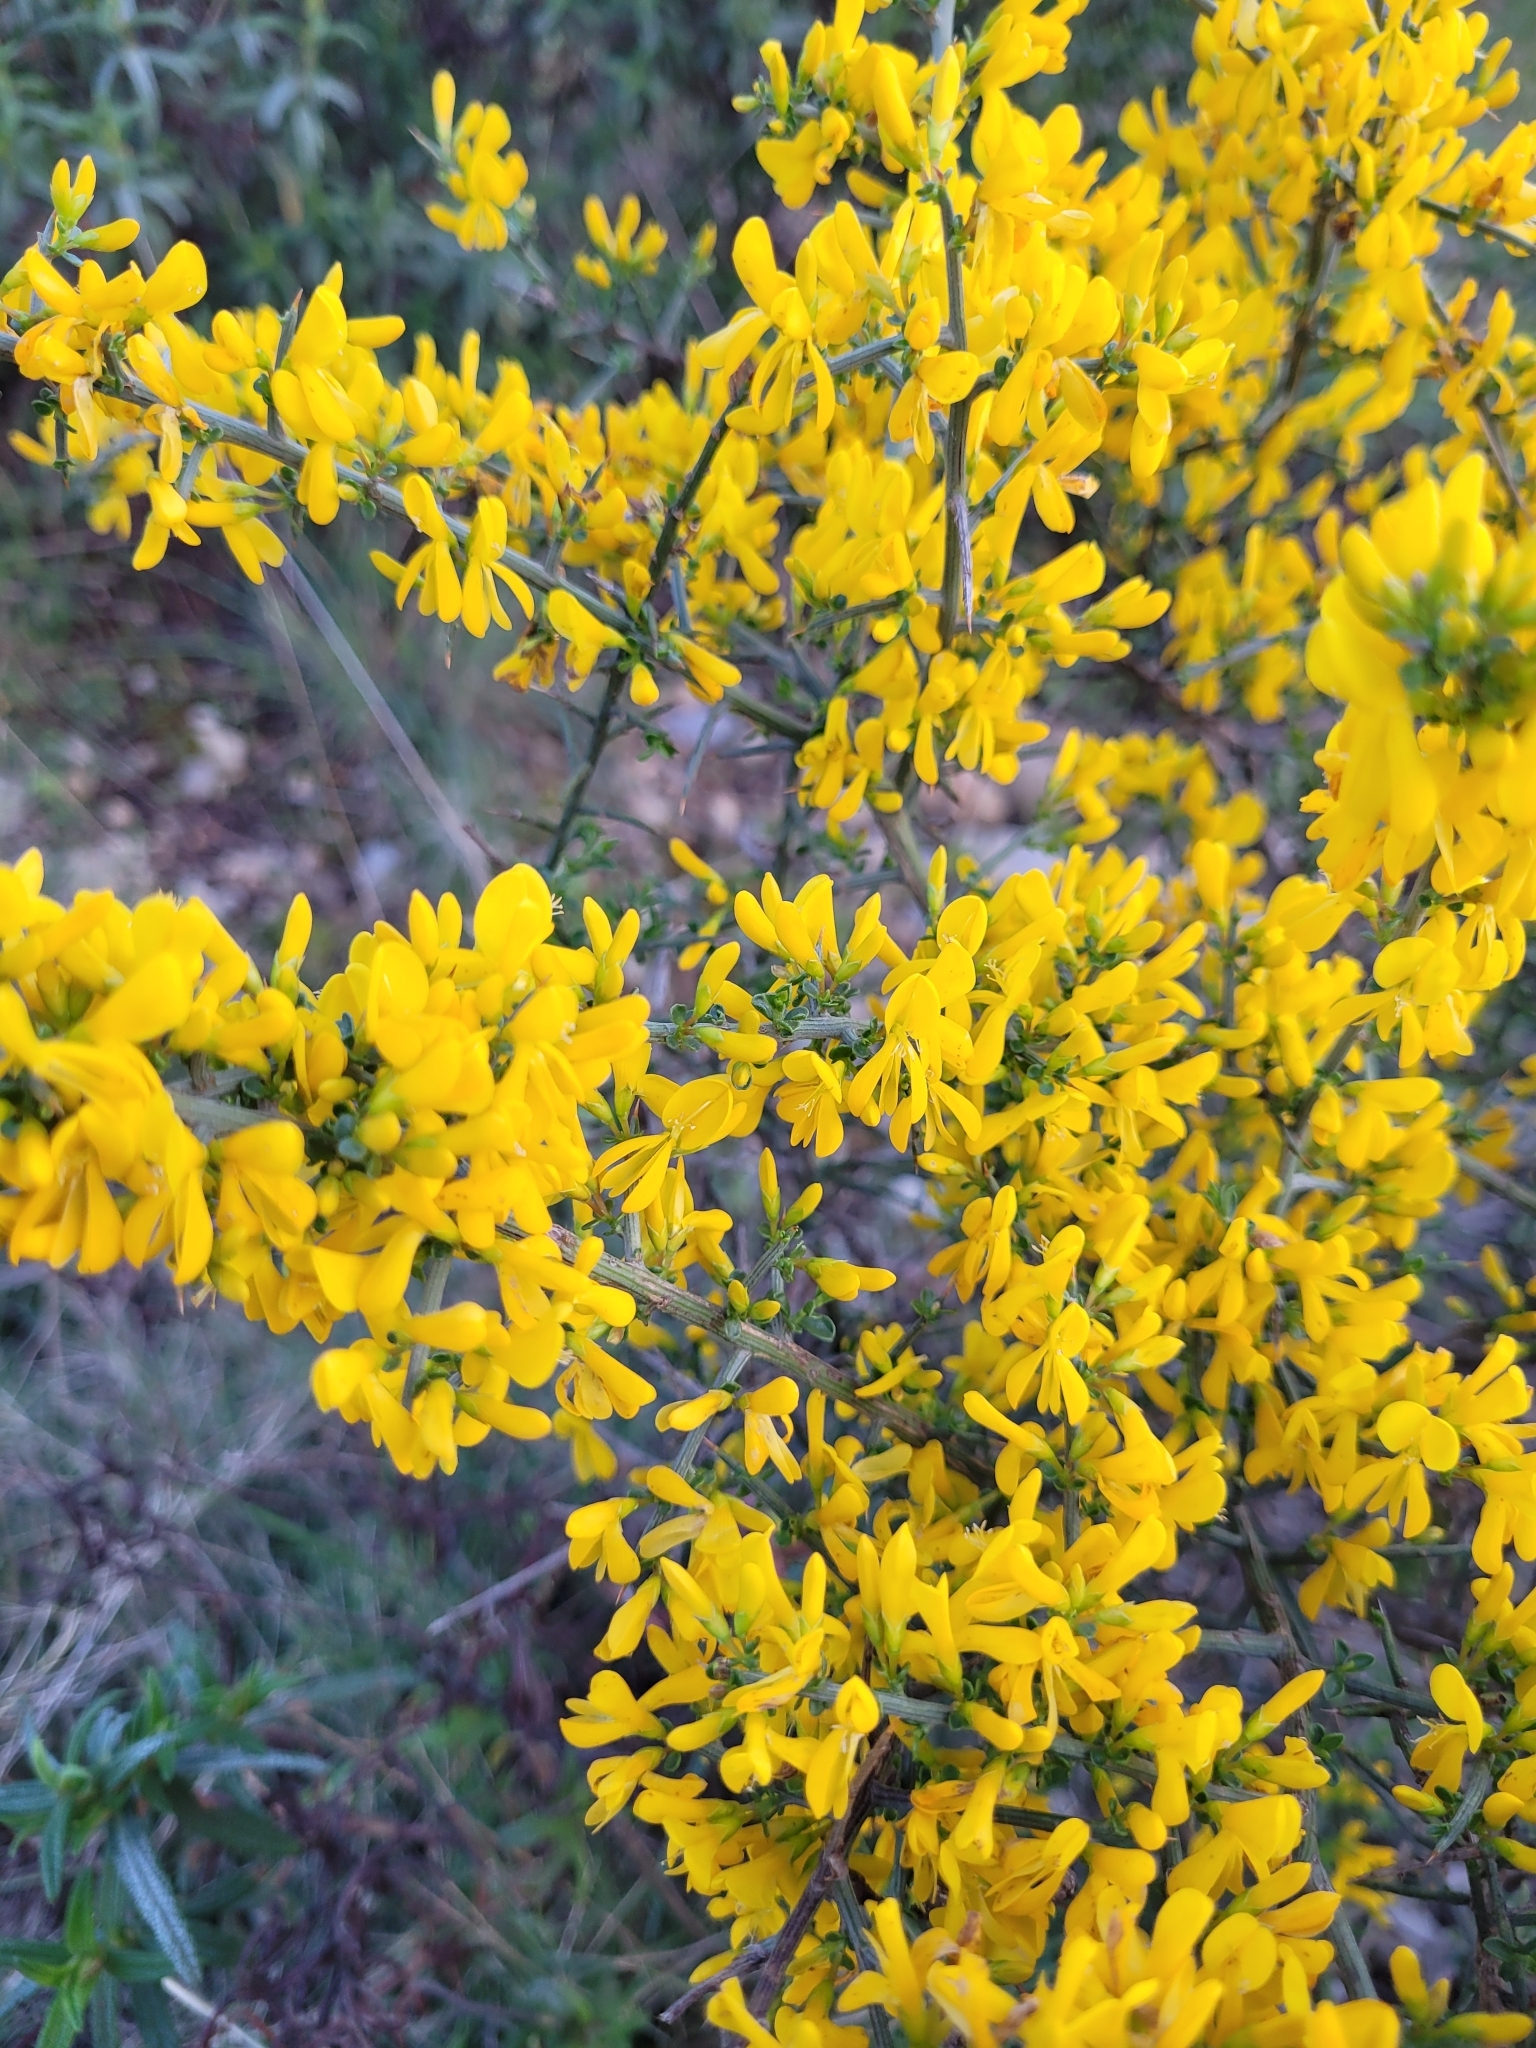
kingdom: Plantae
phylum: Tracheophyta
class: Magnoliopsida
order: Fabales
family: Fabaceae
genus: Genista
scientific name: Genista scorpius
